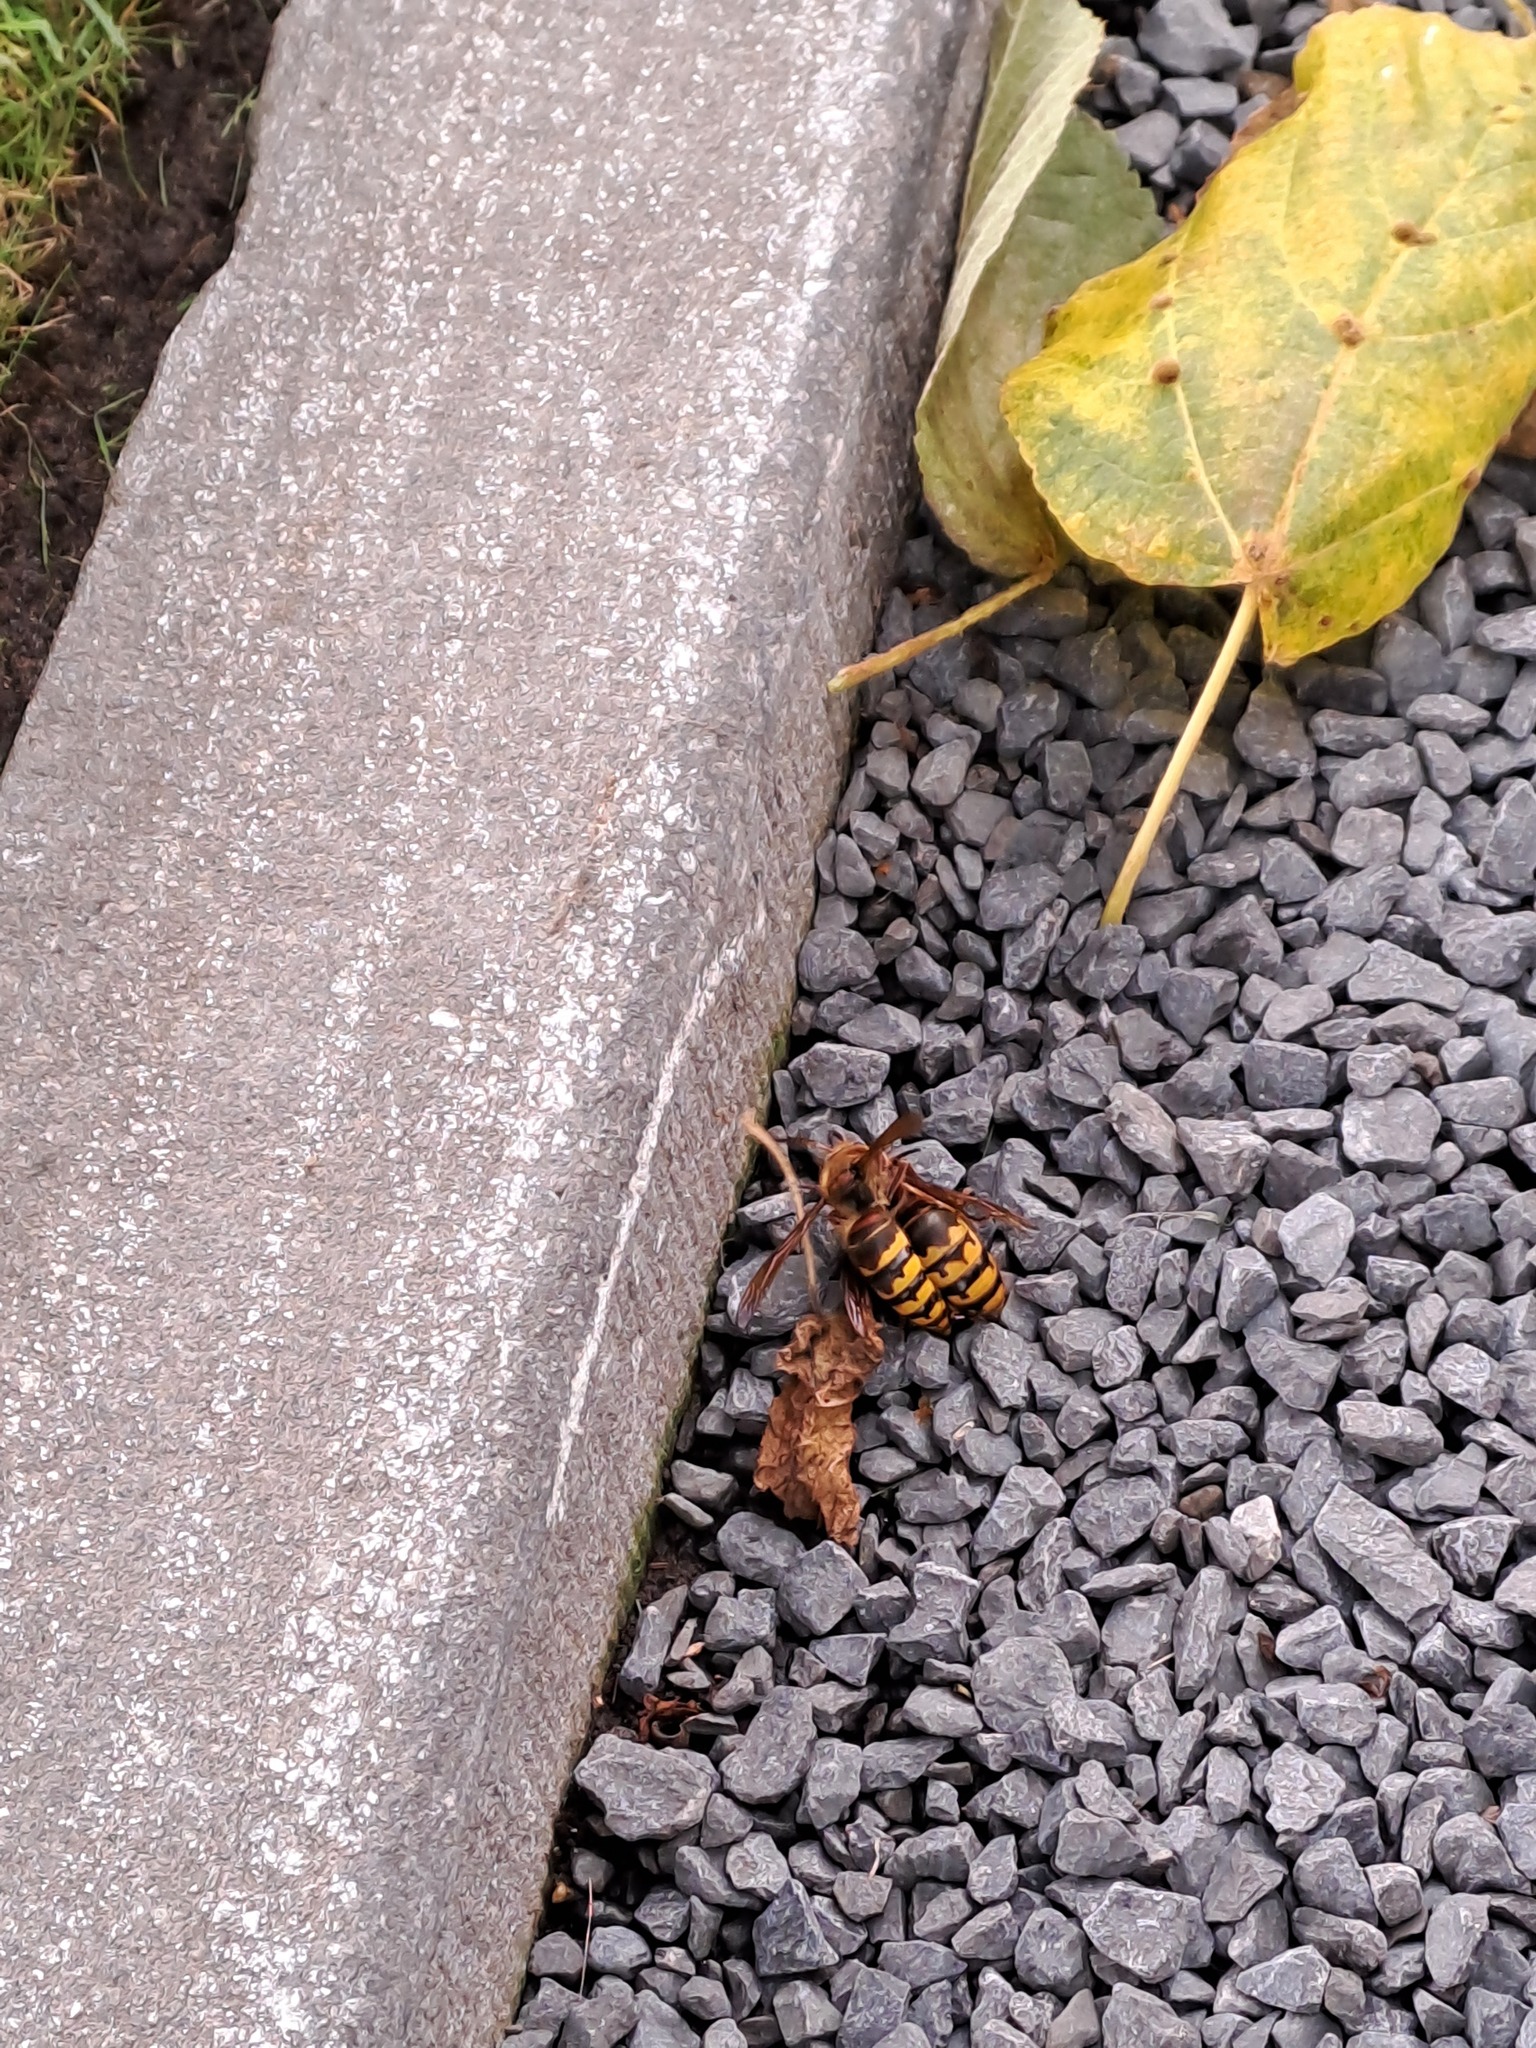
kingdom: Animalia
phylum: Arthropoda
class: Insecta
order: Hymenoptera
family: Vespidae
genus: Vespa
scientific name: Vespa crabro
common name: Hornet
